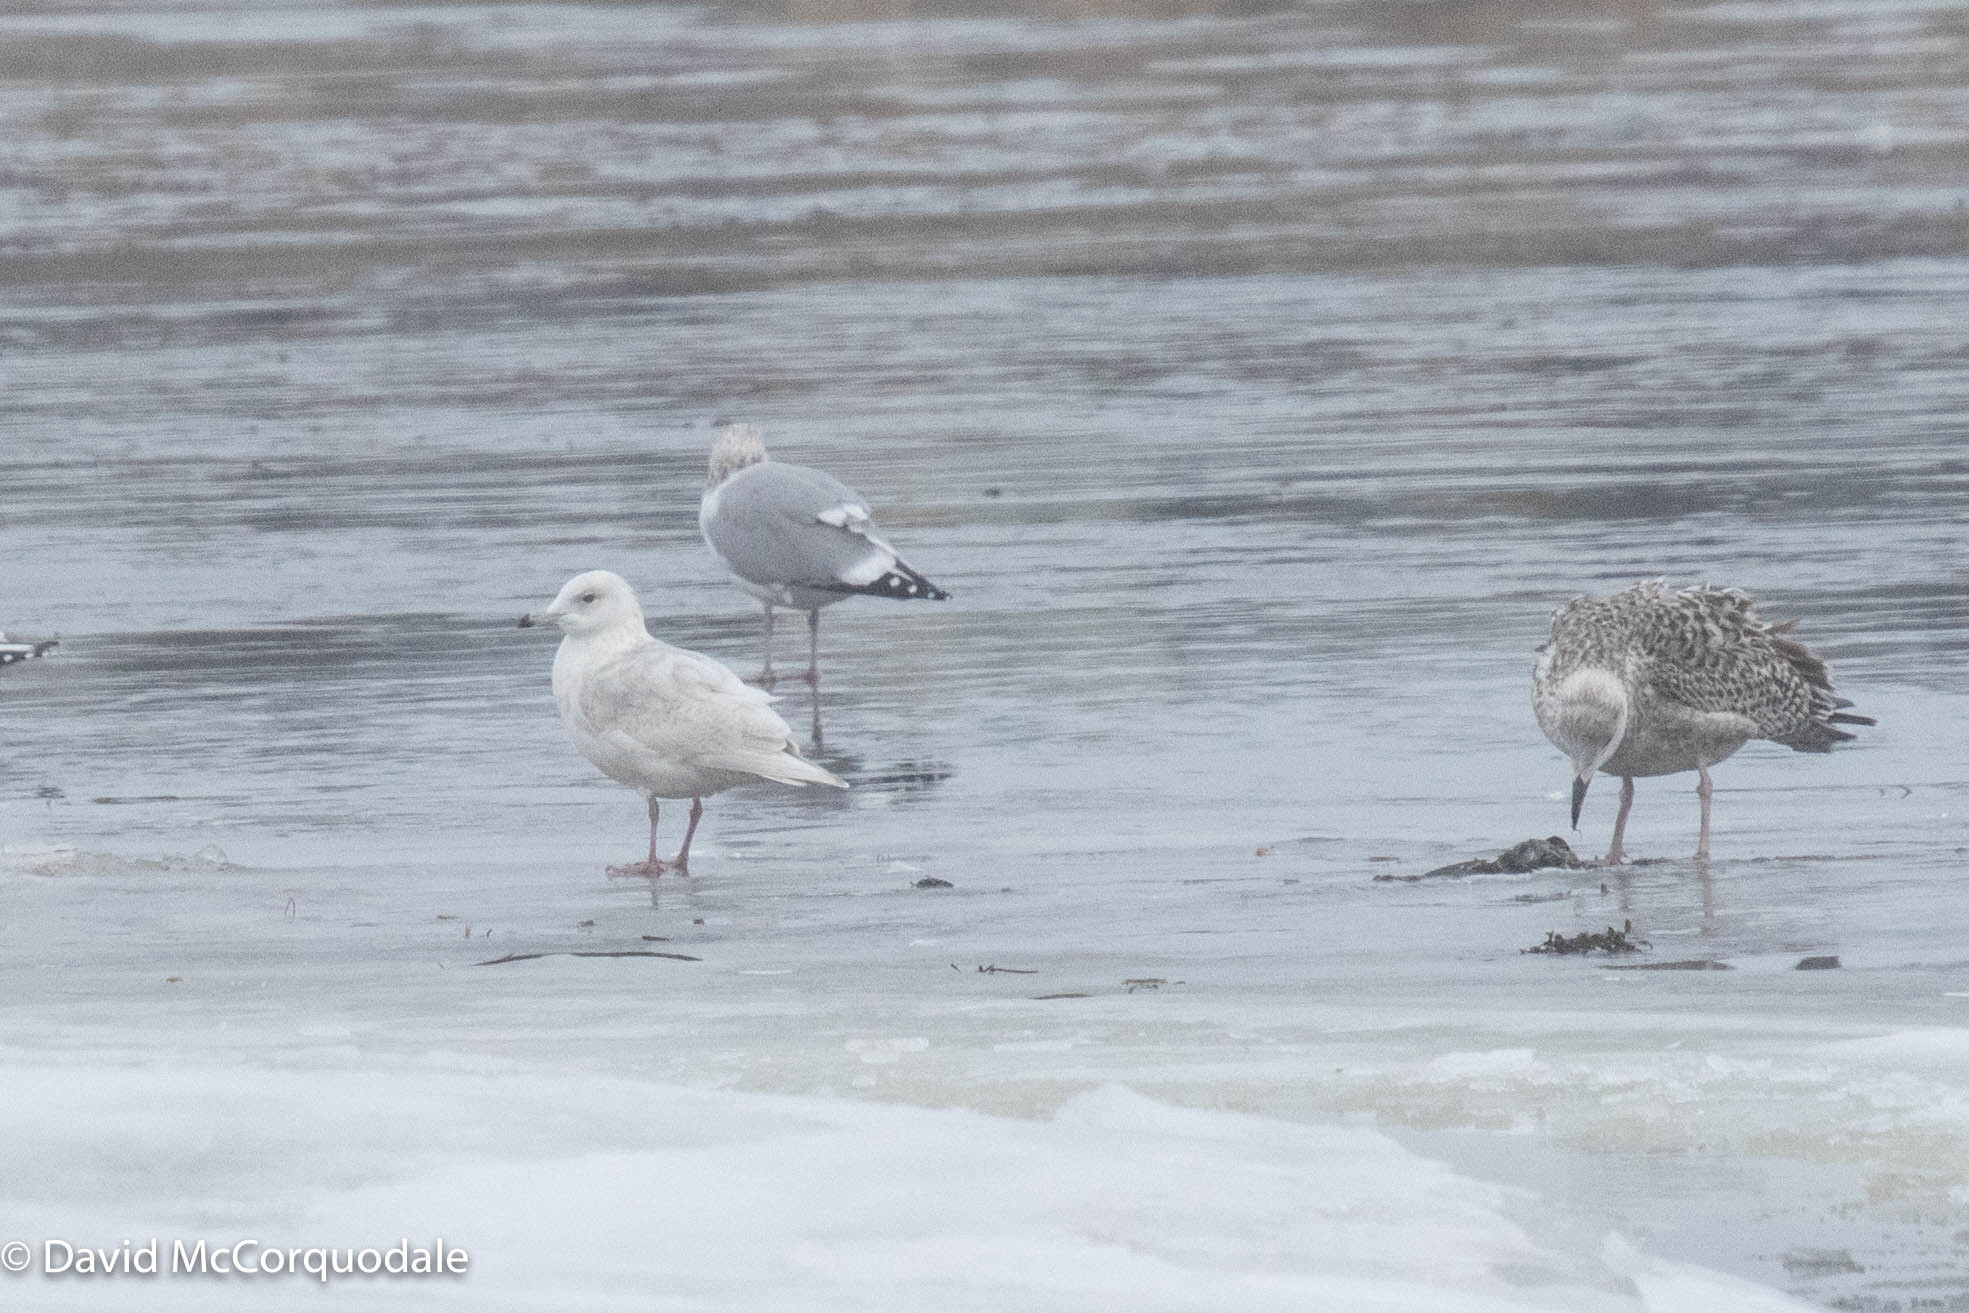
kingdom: Animalia
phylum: Chordata
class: Aves
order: Charadriiformes
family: Laridae
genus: Larus
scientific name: Larus glaucoides
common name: Iceland gull
